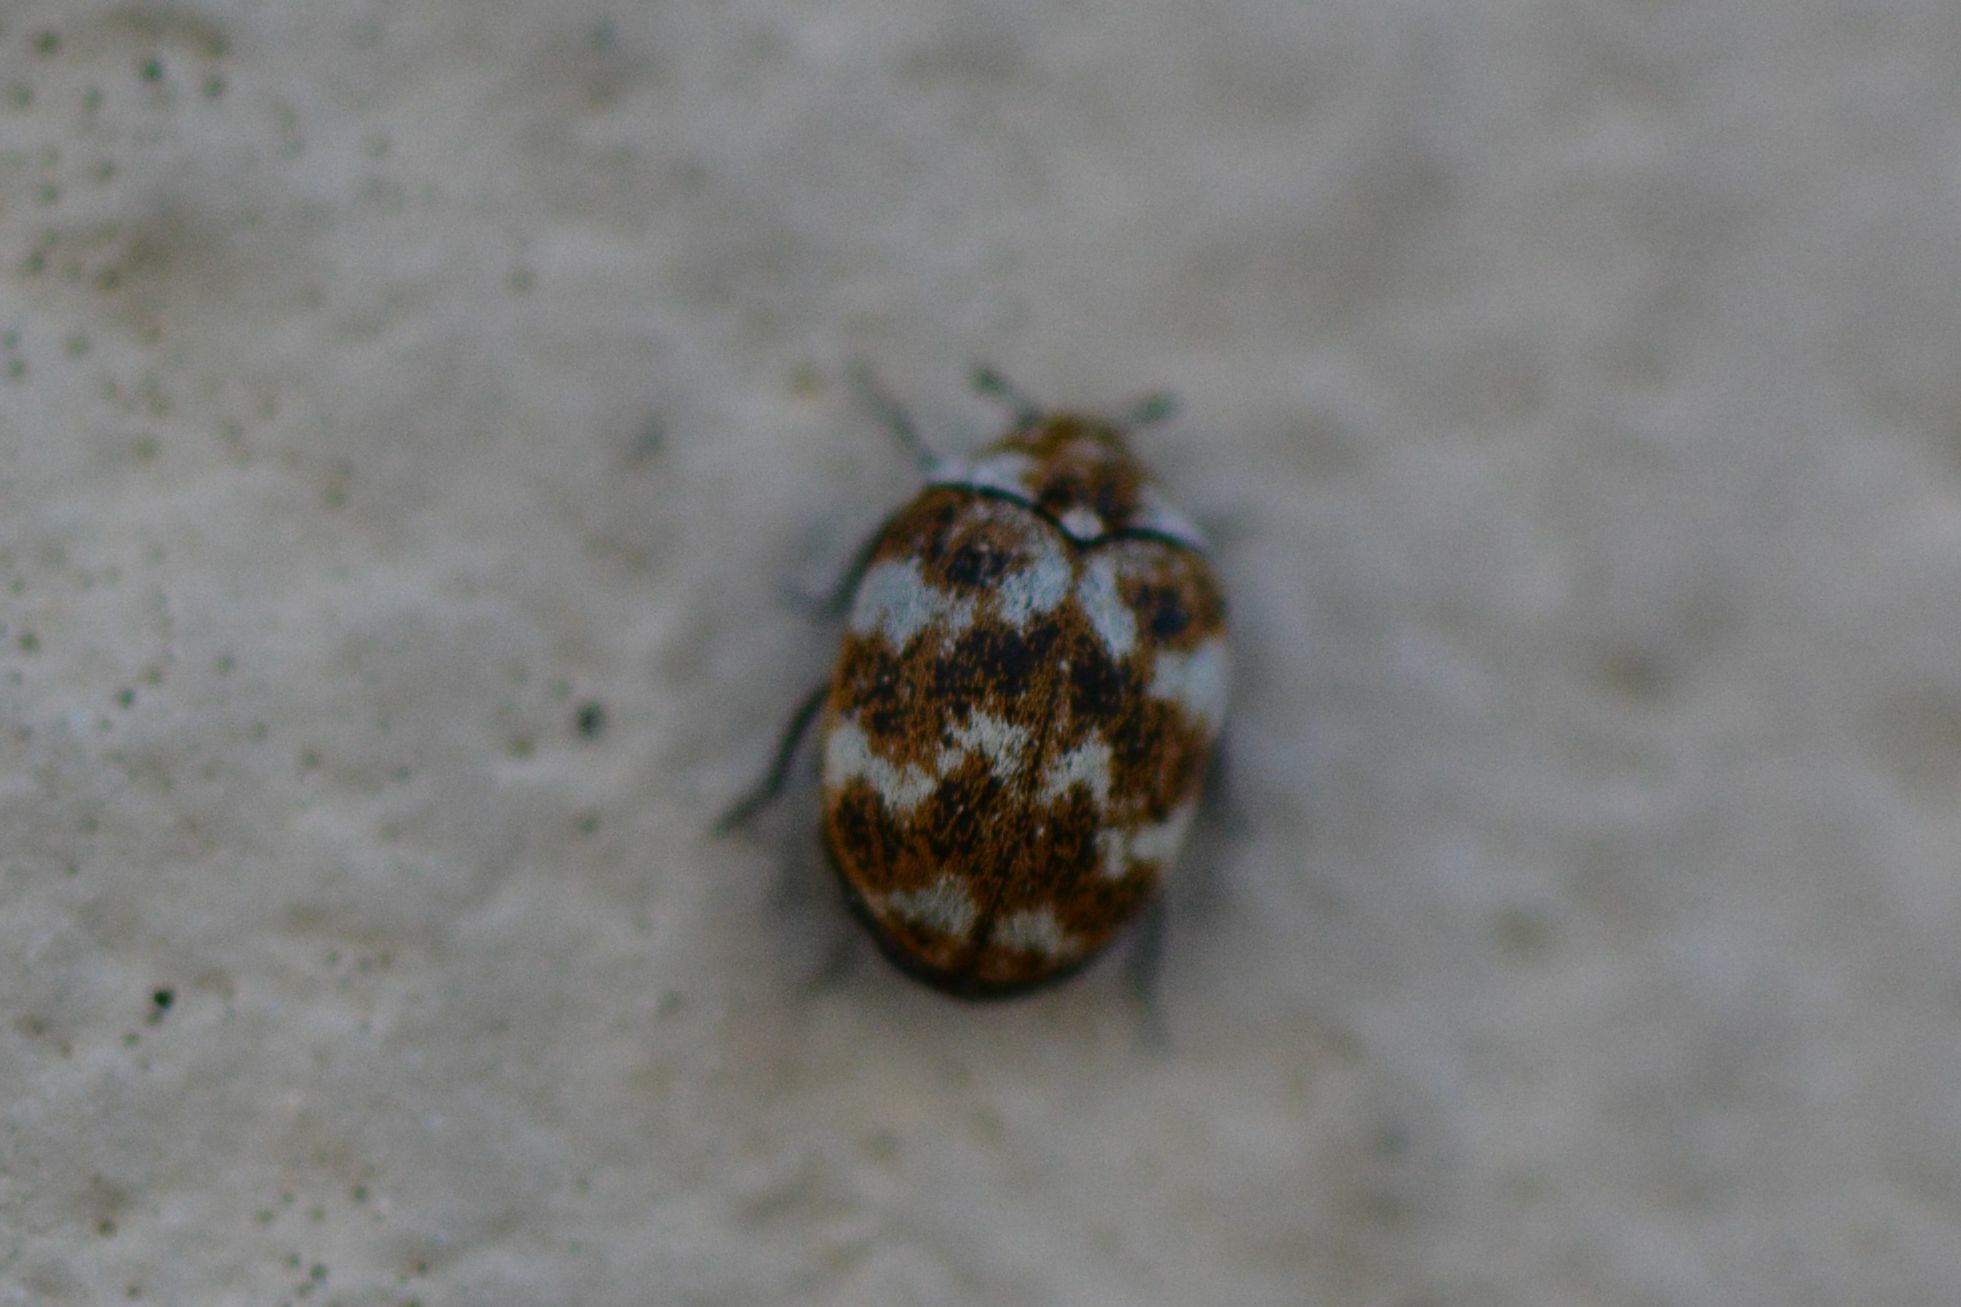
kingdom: Animalia
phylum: Arthropoda
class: Insecta
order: Coleoptera
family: Dermestidae
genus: Anthrenus
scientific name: Anthrenus verbasci
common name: Varied carpet beetle
